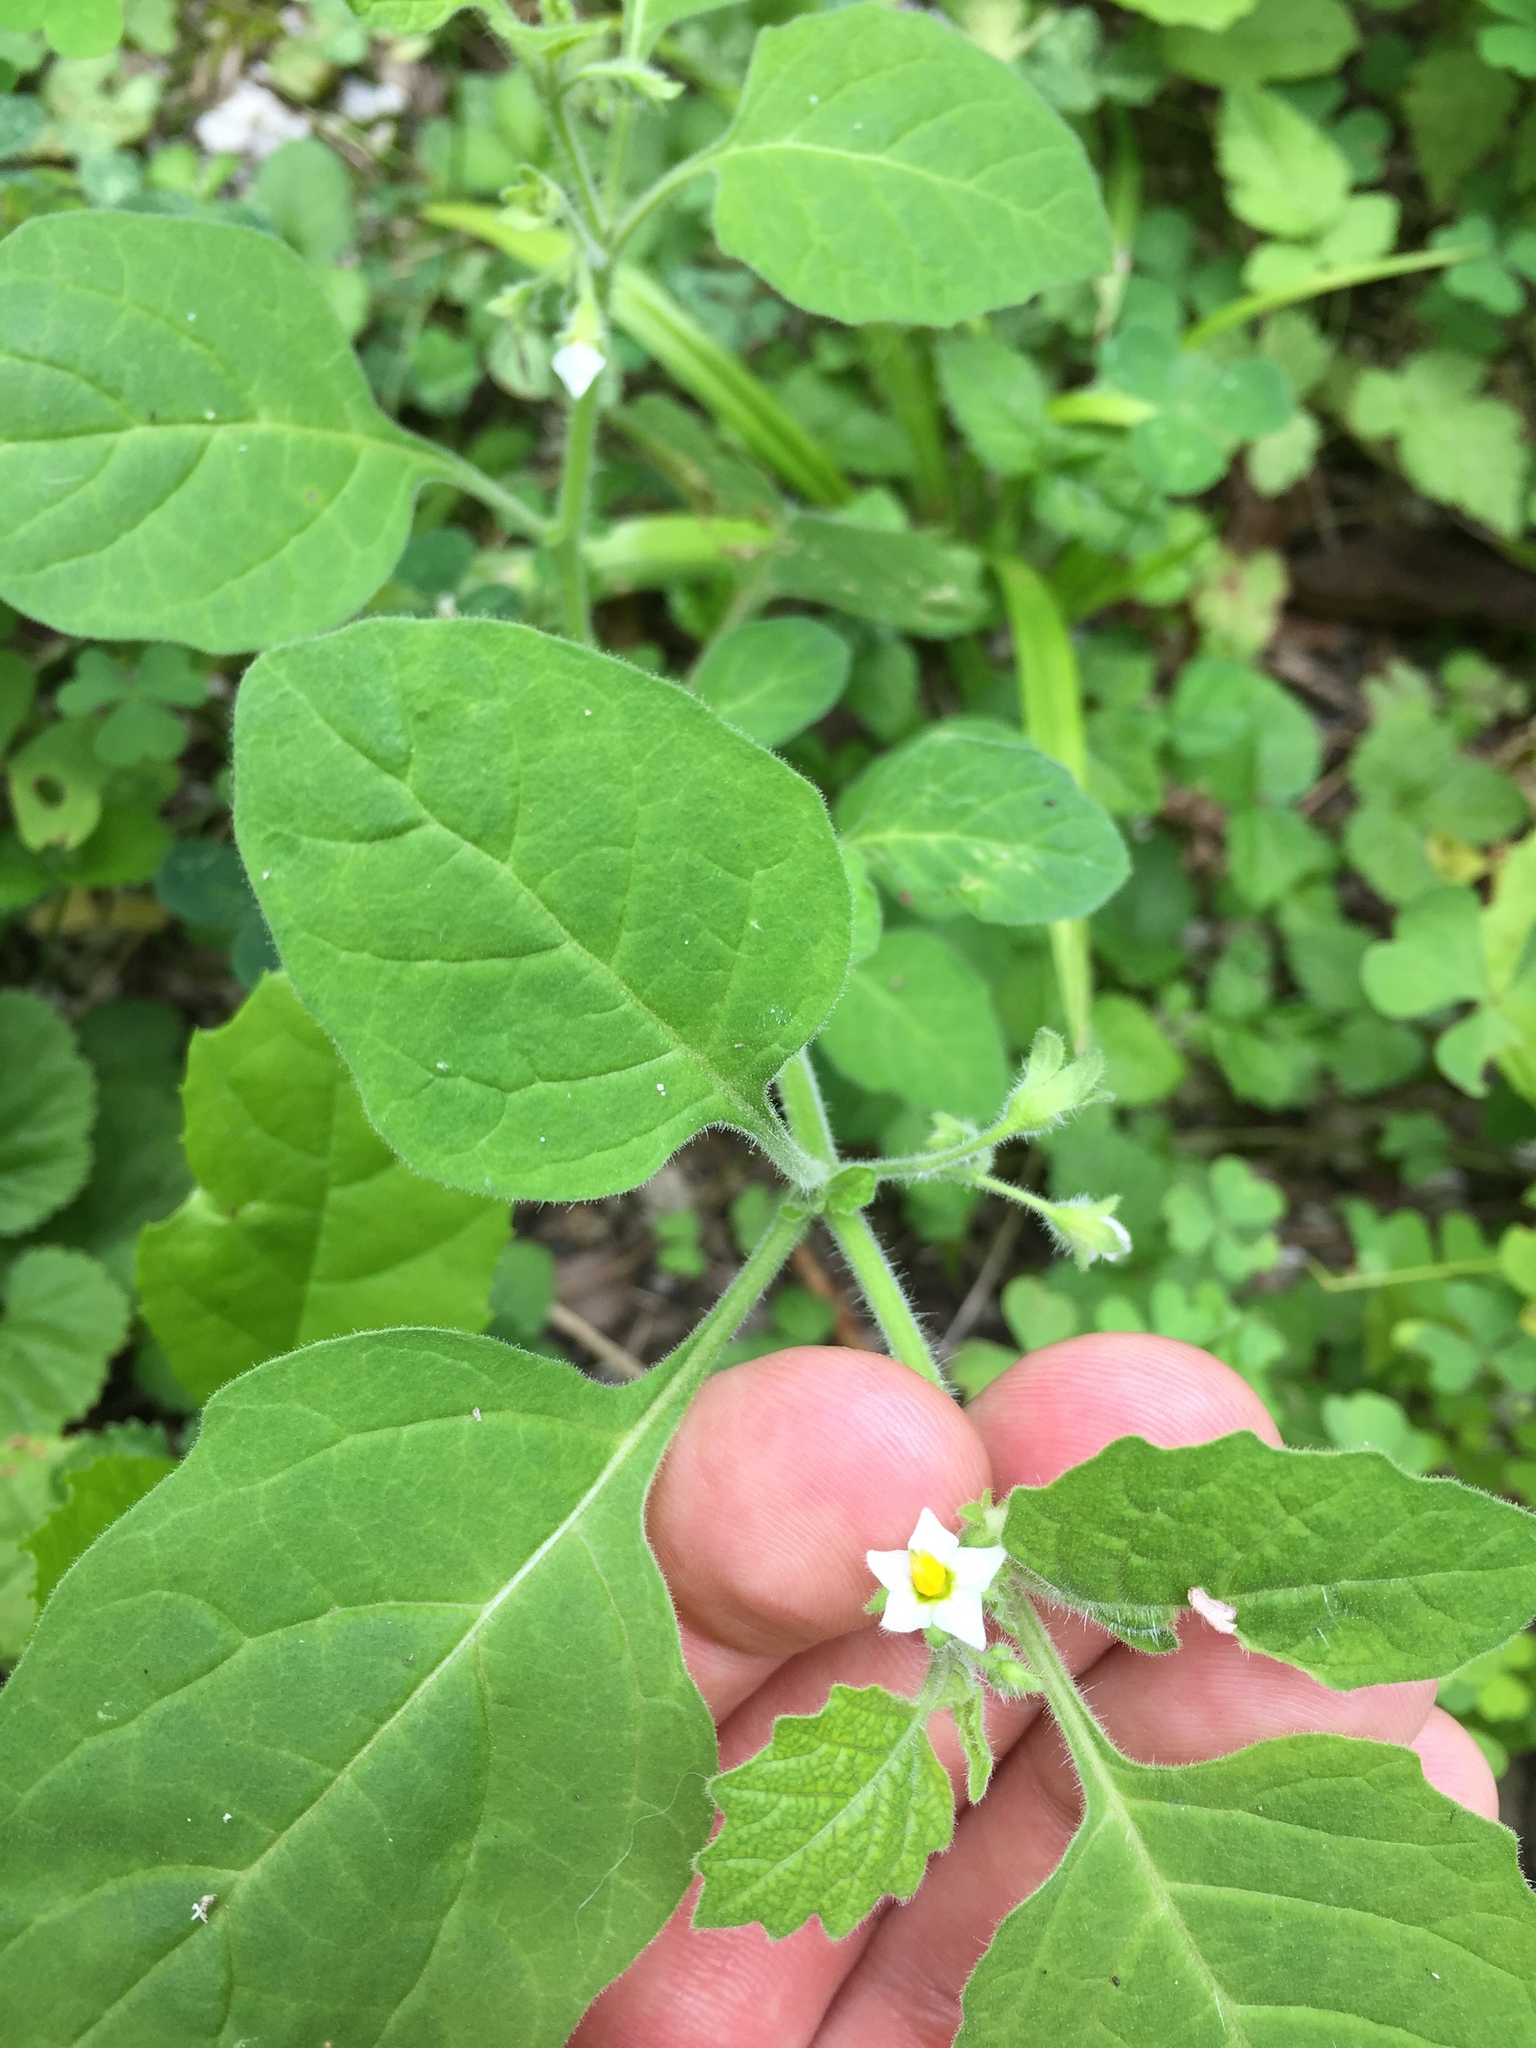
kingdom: Plantae
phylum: Tracheophyta
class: Magnoliopsida
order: Solanales
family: Solanaceae
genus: Solanum
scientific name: Solanum sarrachoides
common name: Leafy-fruited nightshade
